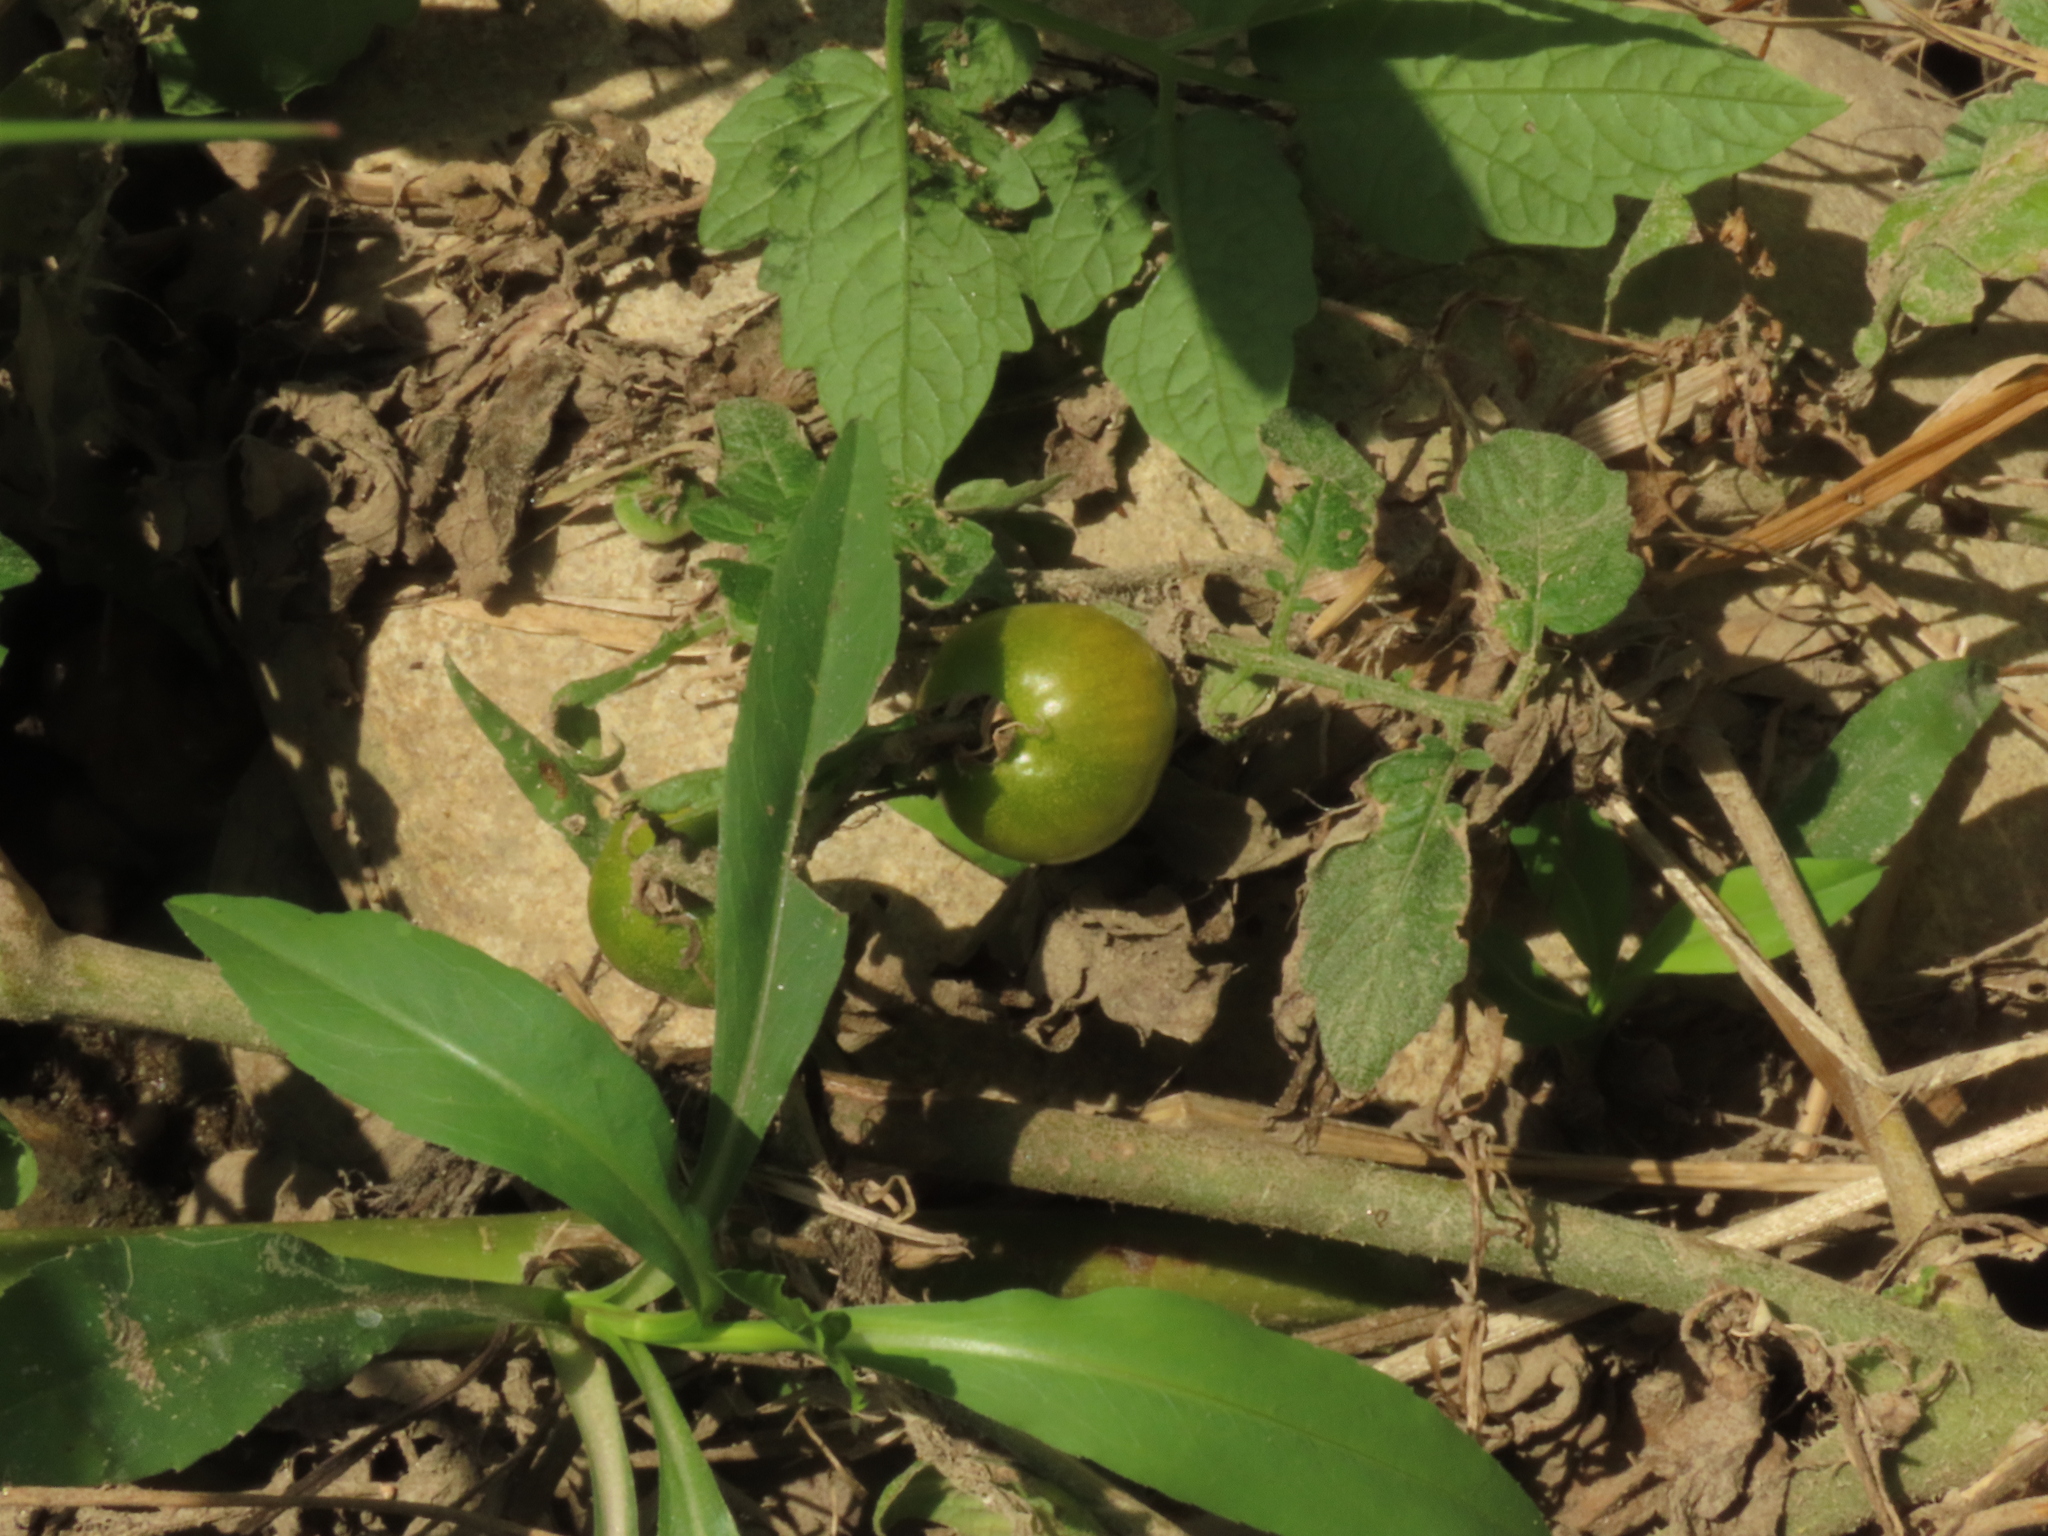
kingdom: Plantae
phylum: Tracheophyta
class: Magnoliopsida
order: Solanales
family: Solanaceae
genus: Solanum
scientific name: Solanum lycopersicum
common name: Garden tomato
